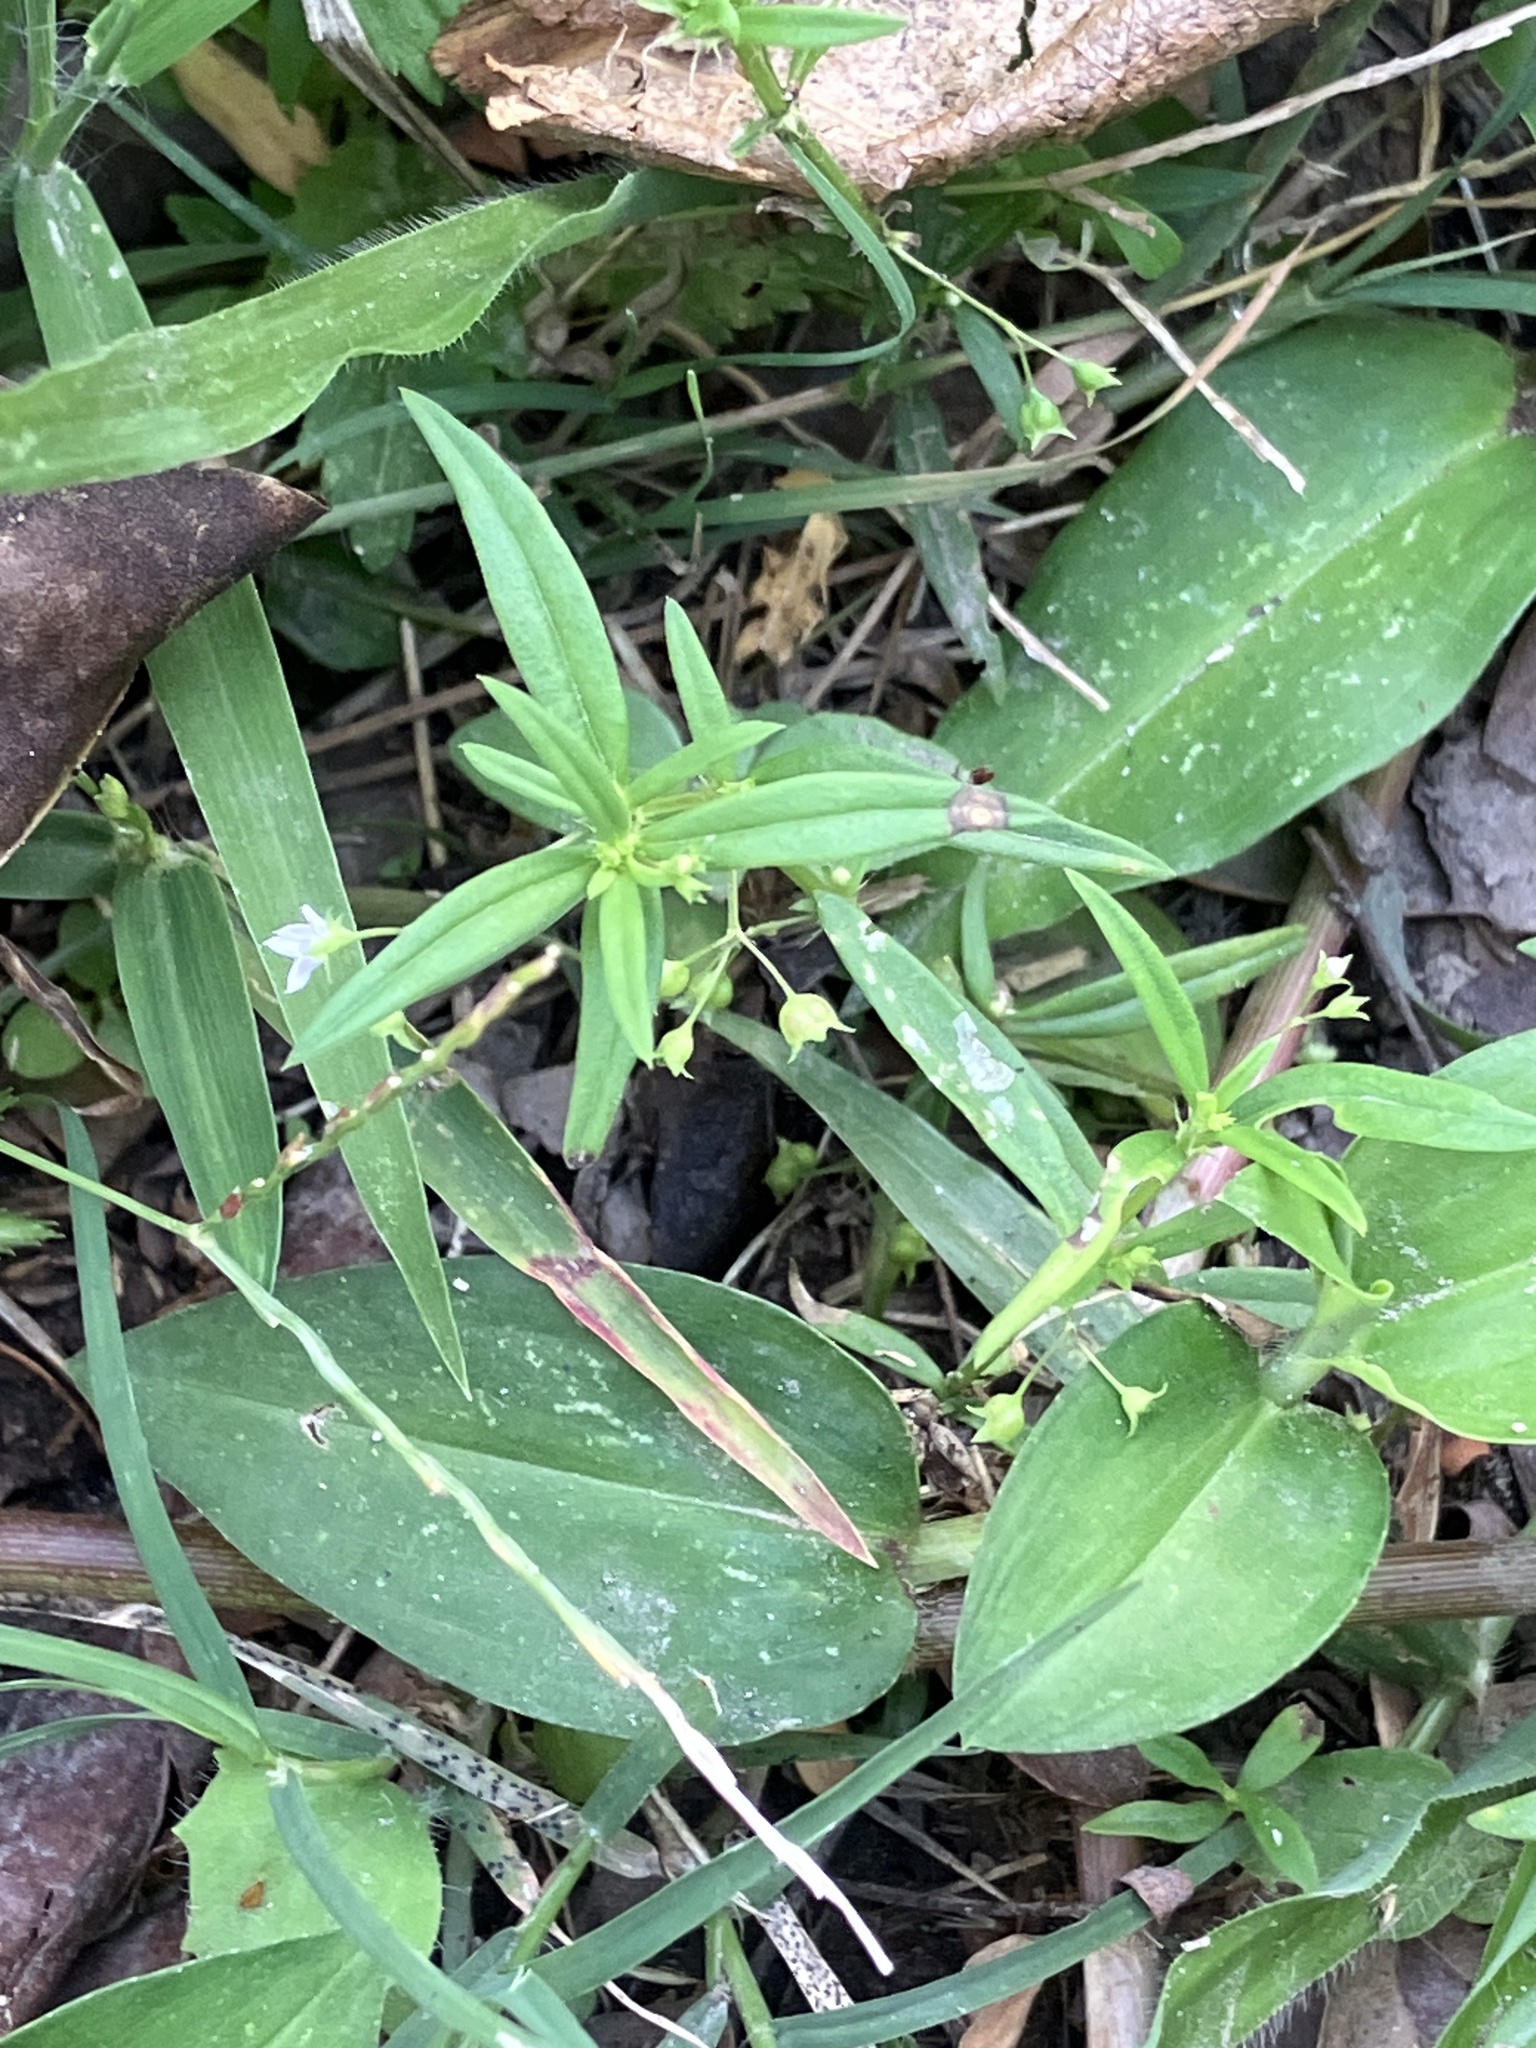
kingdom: Plantae
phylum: Tracheophyta
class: Magnoliopsida
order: Gentianales
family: Rubiaceae
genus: Oldenlandia
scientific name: Oldenlandia corymbosa
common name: Flat-top mille graines
